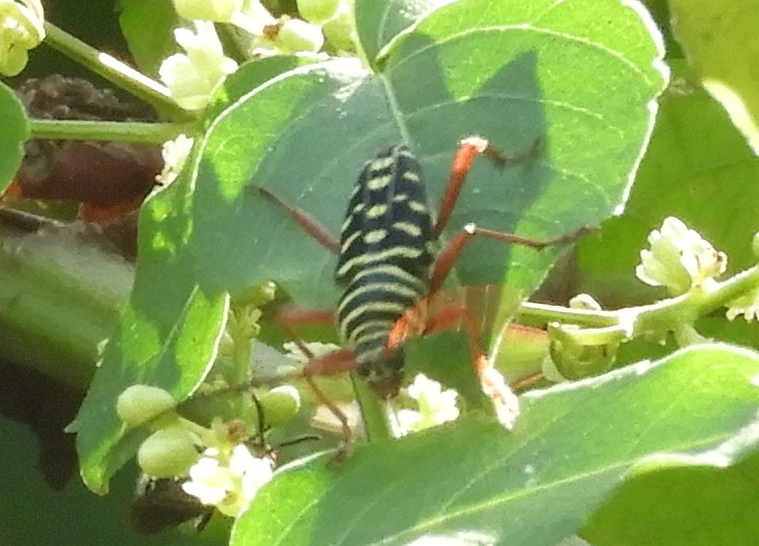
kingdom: Animalia
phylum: Arthropoda
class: Insecta
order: Coleoptera
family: Cerambycidae
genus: Placosternus
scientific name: Placosternus difficilis
